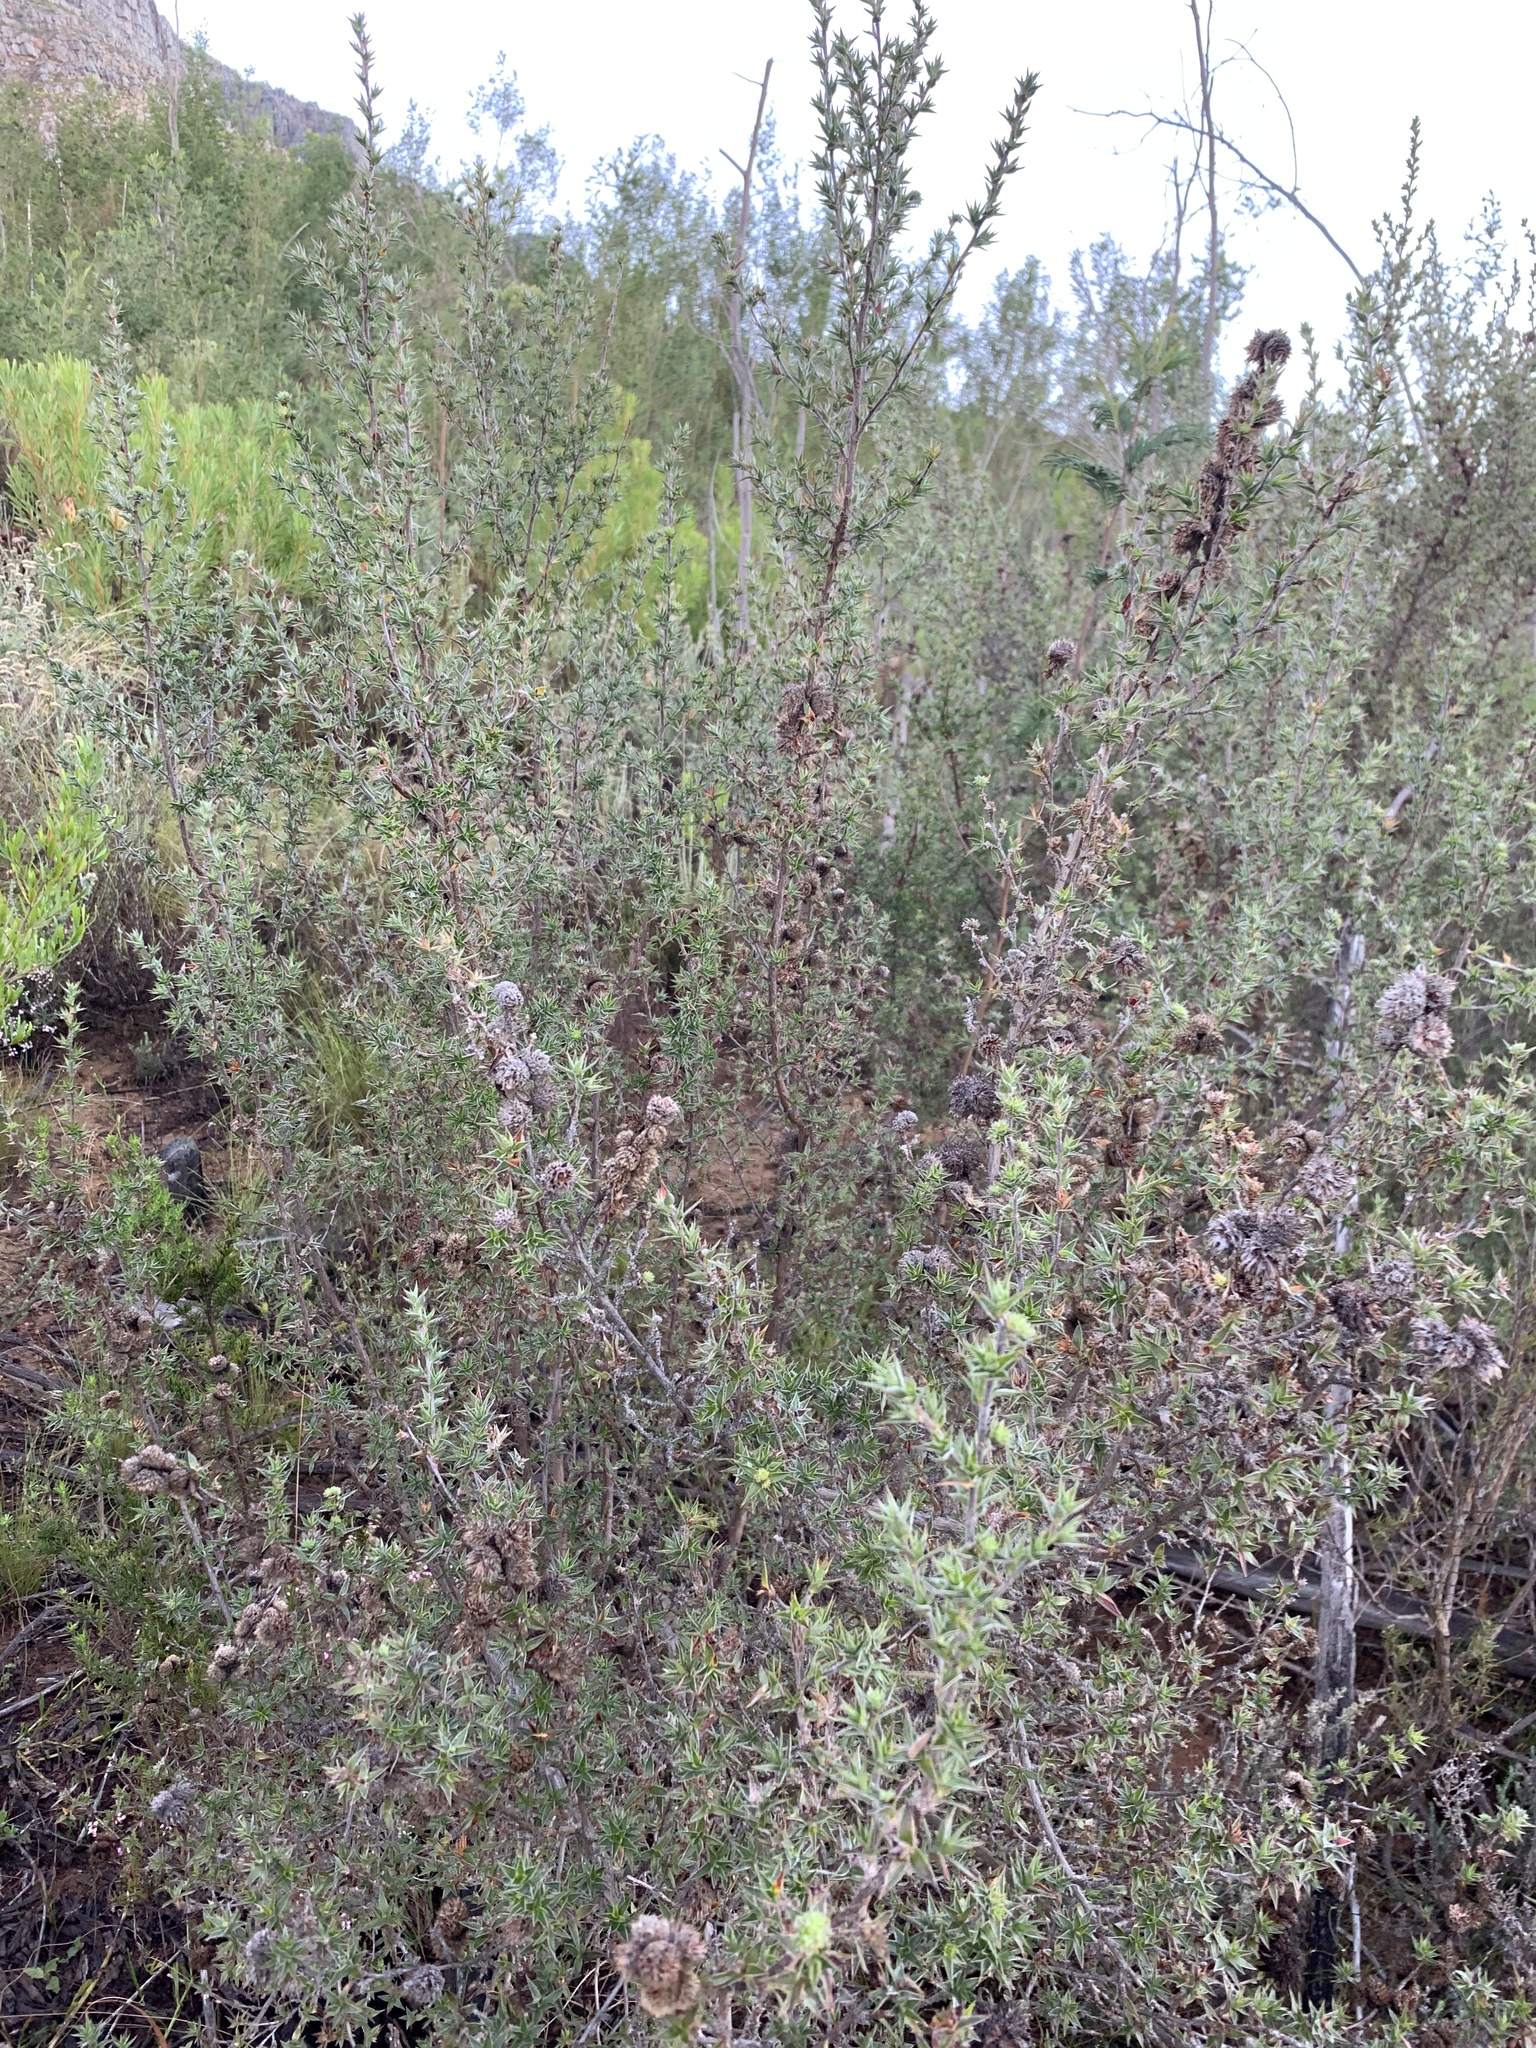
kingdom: Plantae
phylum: Tracheophyta
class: Magnoliopsida
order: Rosales
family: Rosaceae
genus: Cliffortia
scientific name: Cliffortia ruscifolia
